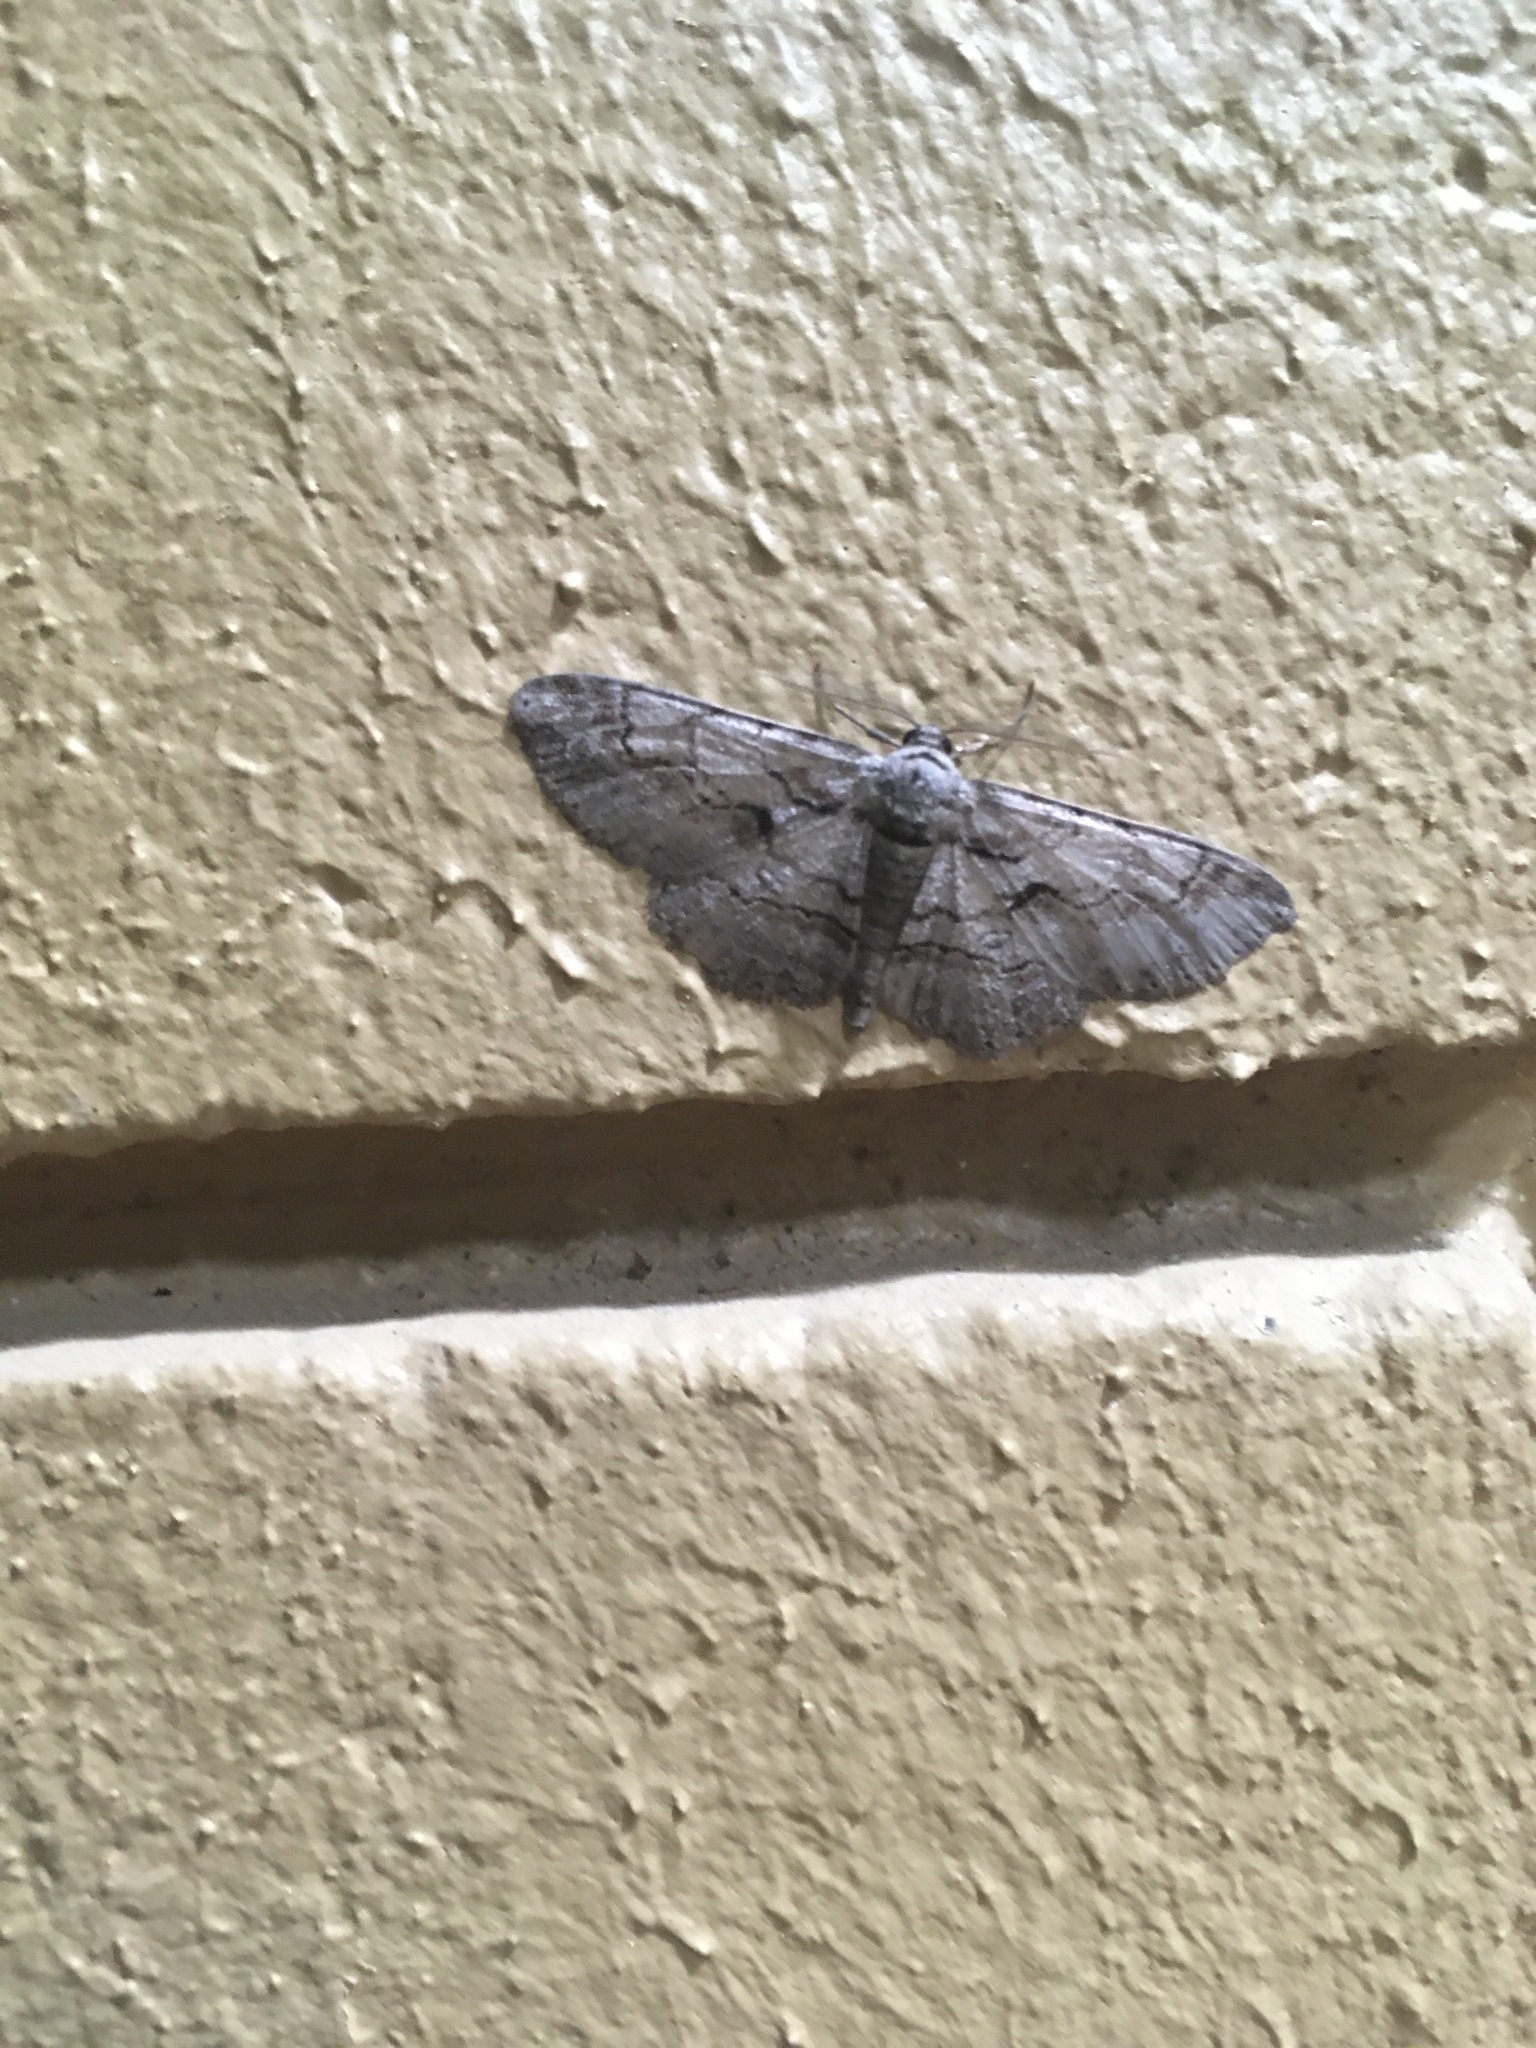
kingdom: Animalia
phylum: Arthropoda
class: Insecta
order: Lepidoptera
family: Geometridae
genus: Iridopsis
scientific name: Iridopsis defectaria
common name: Brown-shaded gray
